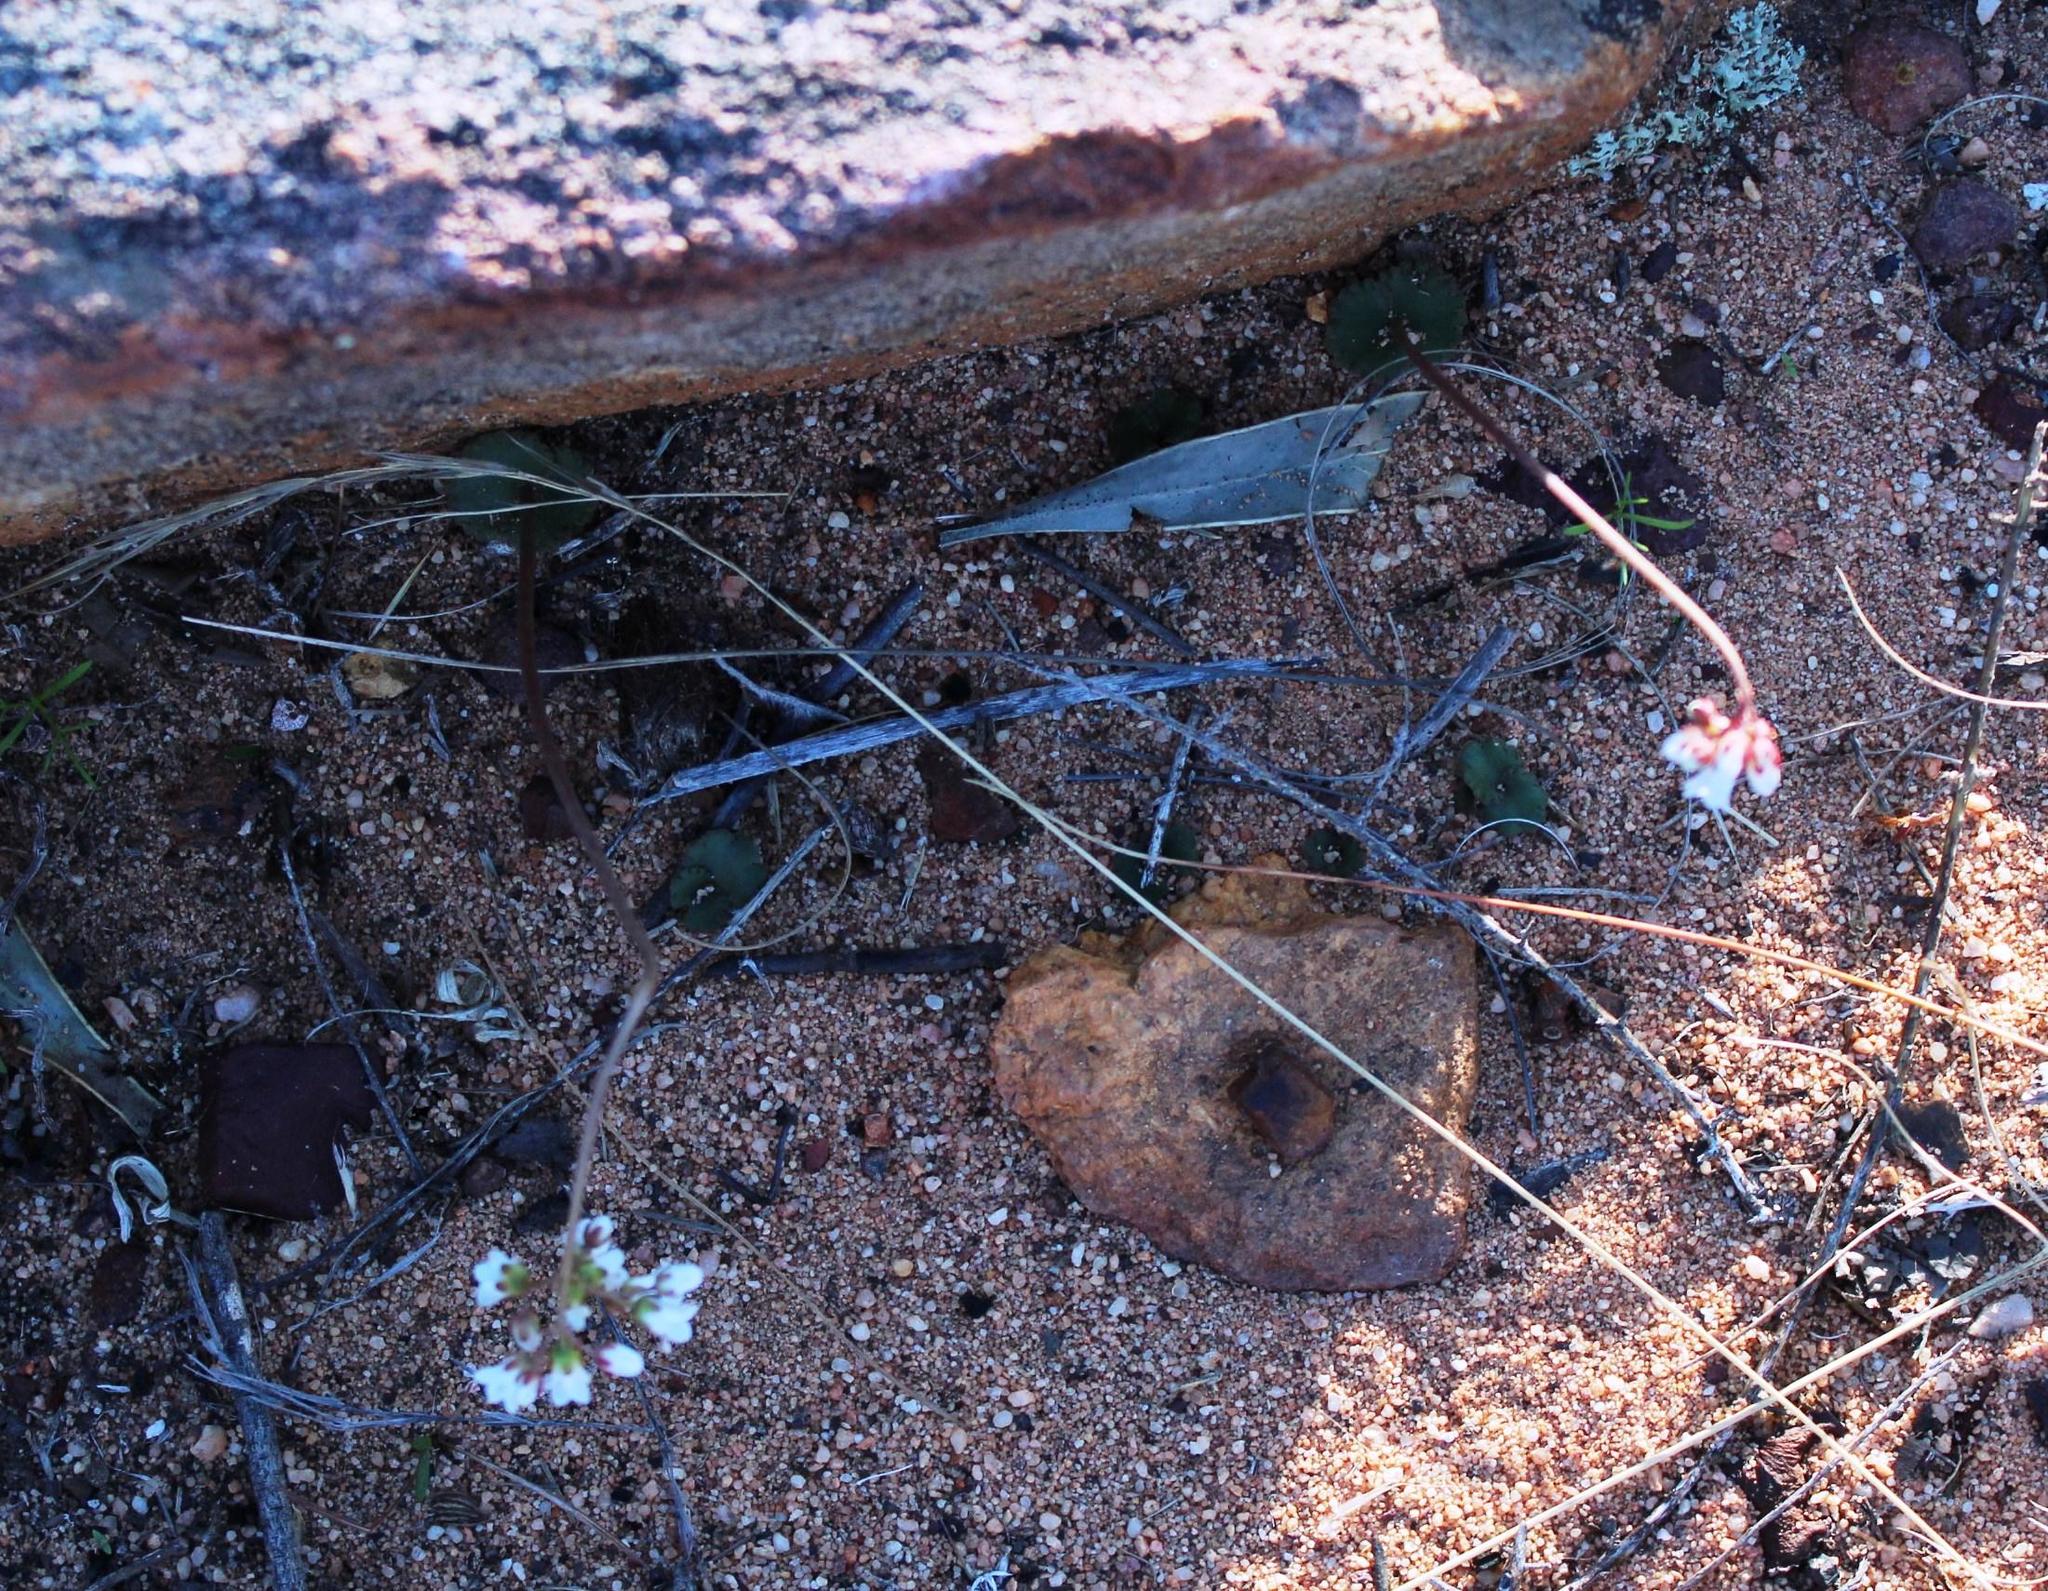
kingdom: Plantae
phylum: Tracheophyta
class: Magnoliopsida
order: Saxifragales
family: Crassulaceae
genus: Crassula
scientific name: Crassula saxifraga
